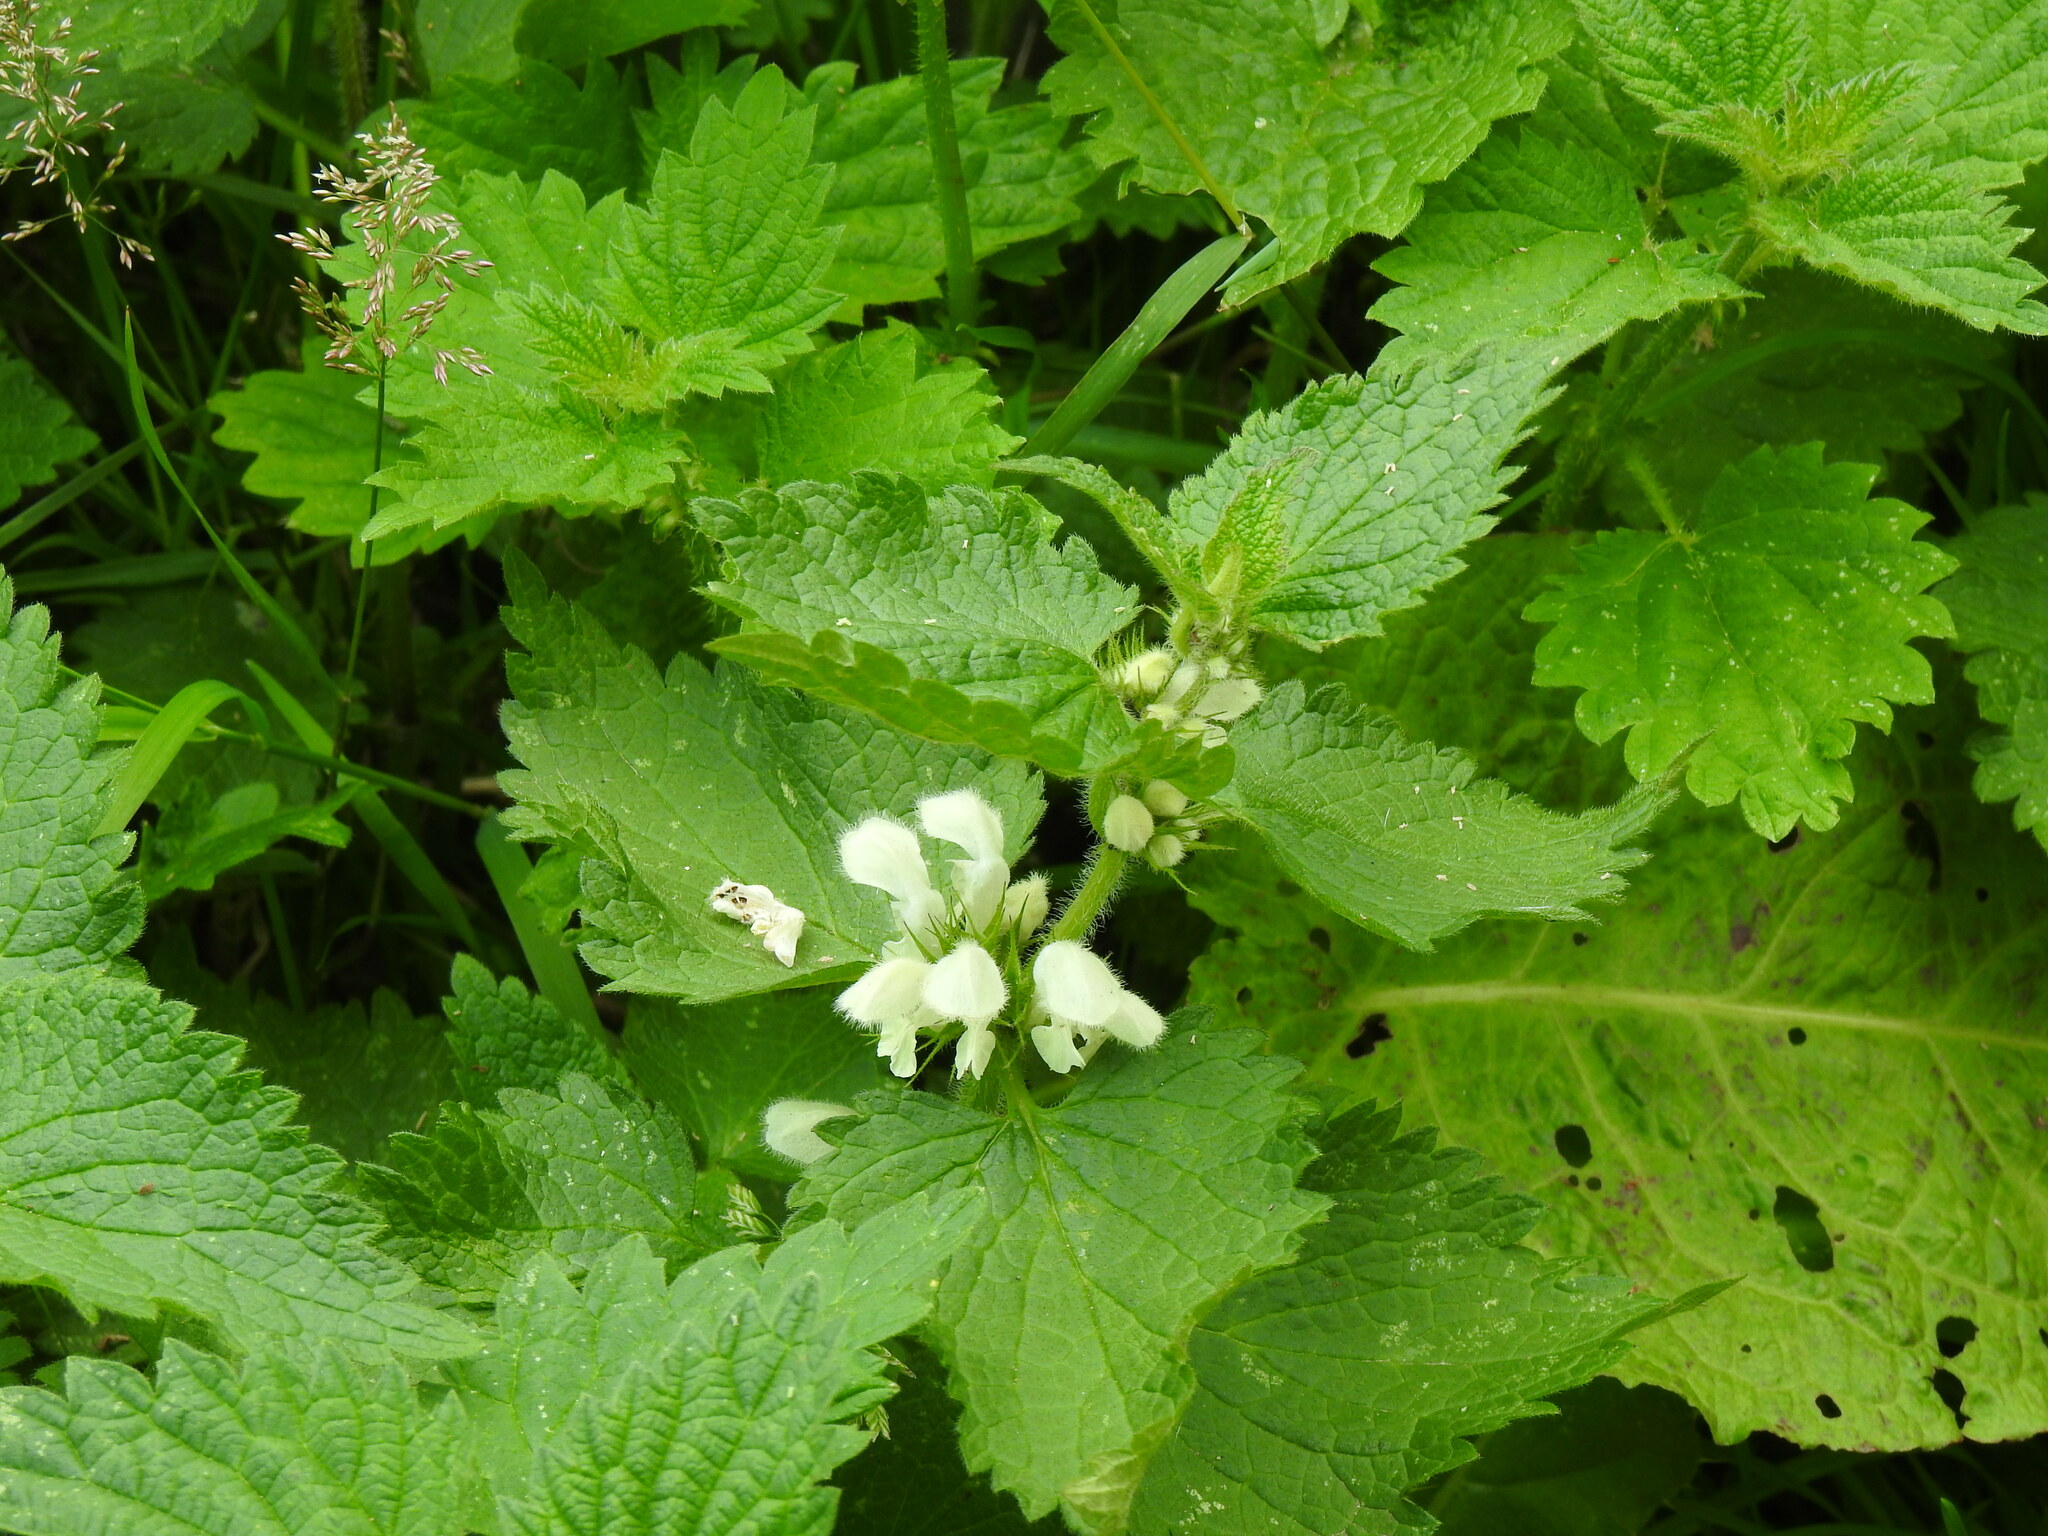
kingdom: Plantae
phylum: Tracheophyta
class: Magnoliopsida
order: Lamiales
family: Lamiaceae
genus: Lamium
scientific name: Lamium album
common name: White dead-nettle
